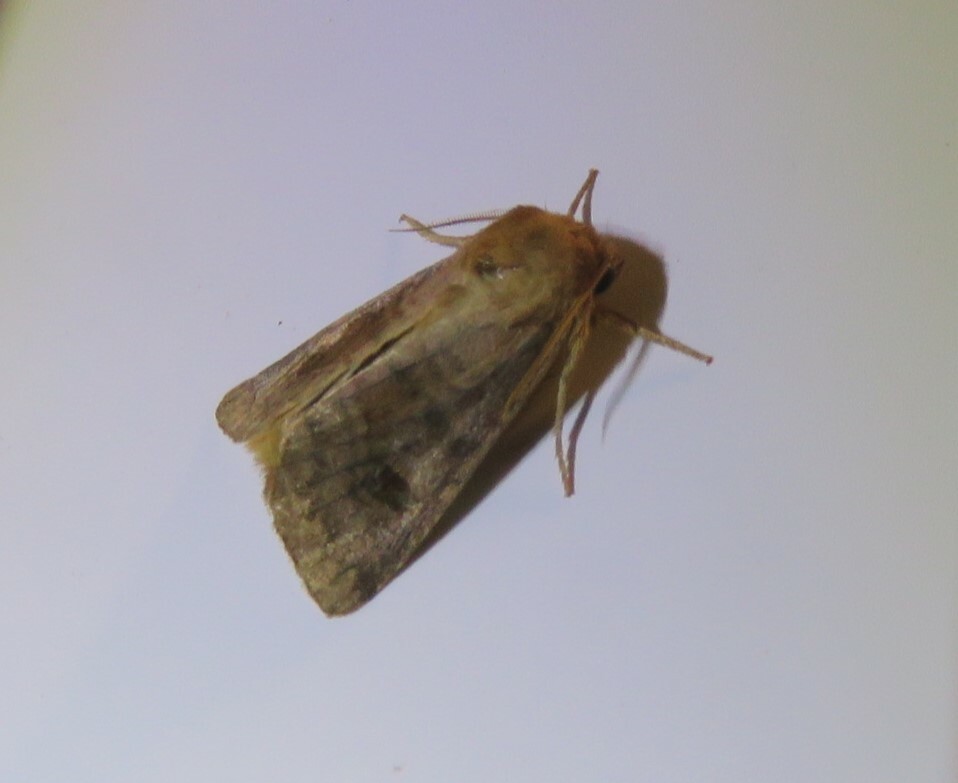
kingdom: Animalia
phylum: Arthropoda
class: Insecta
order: Lepidoptera
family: Noctuidae
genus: Nephelodes
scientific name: Nephelodes minians
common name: Bronzed cutworm
